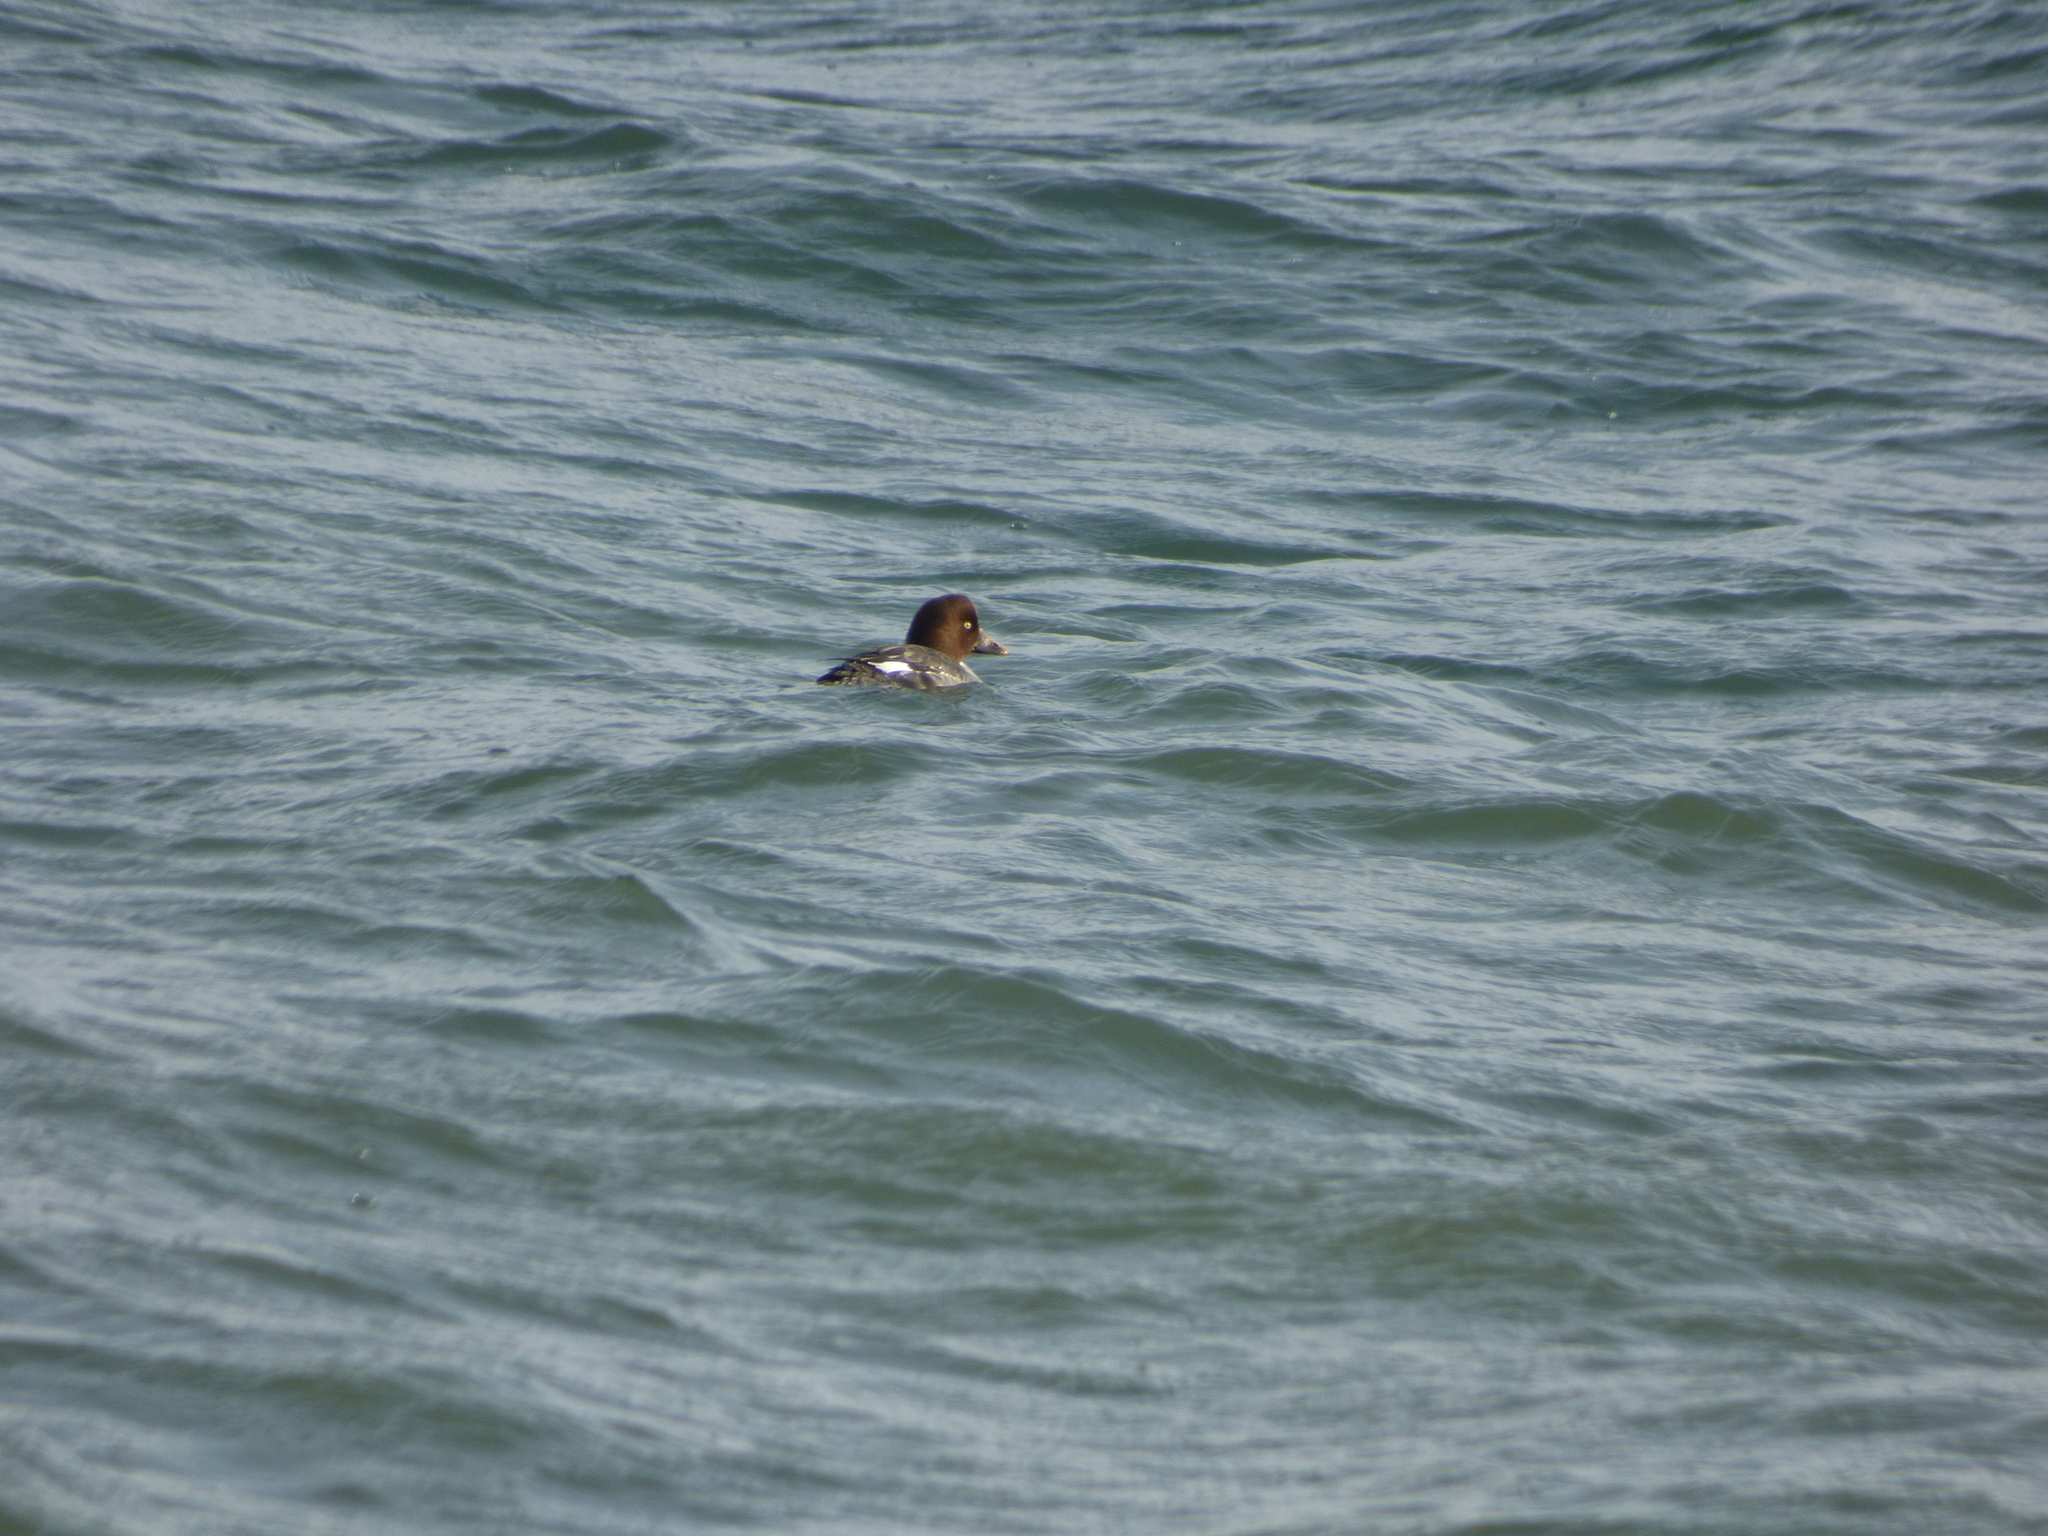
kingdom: Animalia
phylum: Chordata
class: Aves
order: Anseriformes
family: Anatidae
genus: Bucephala
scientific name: Bucephala clangula
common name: Common goldeneye
